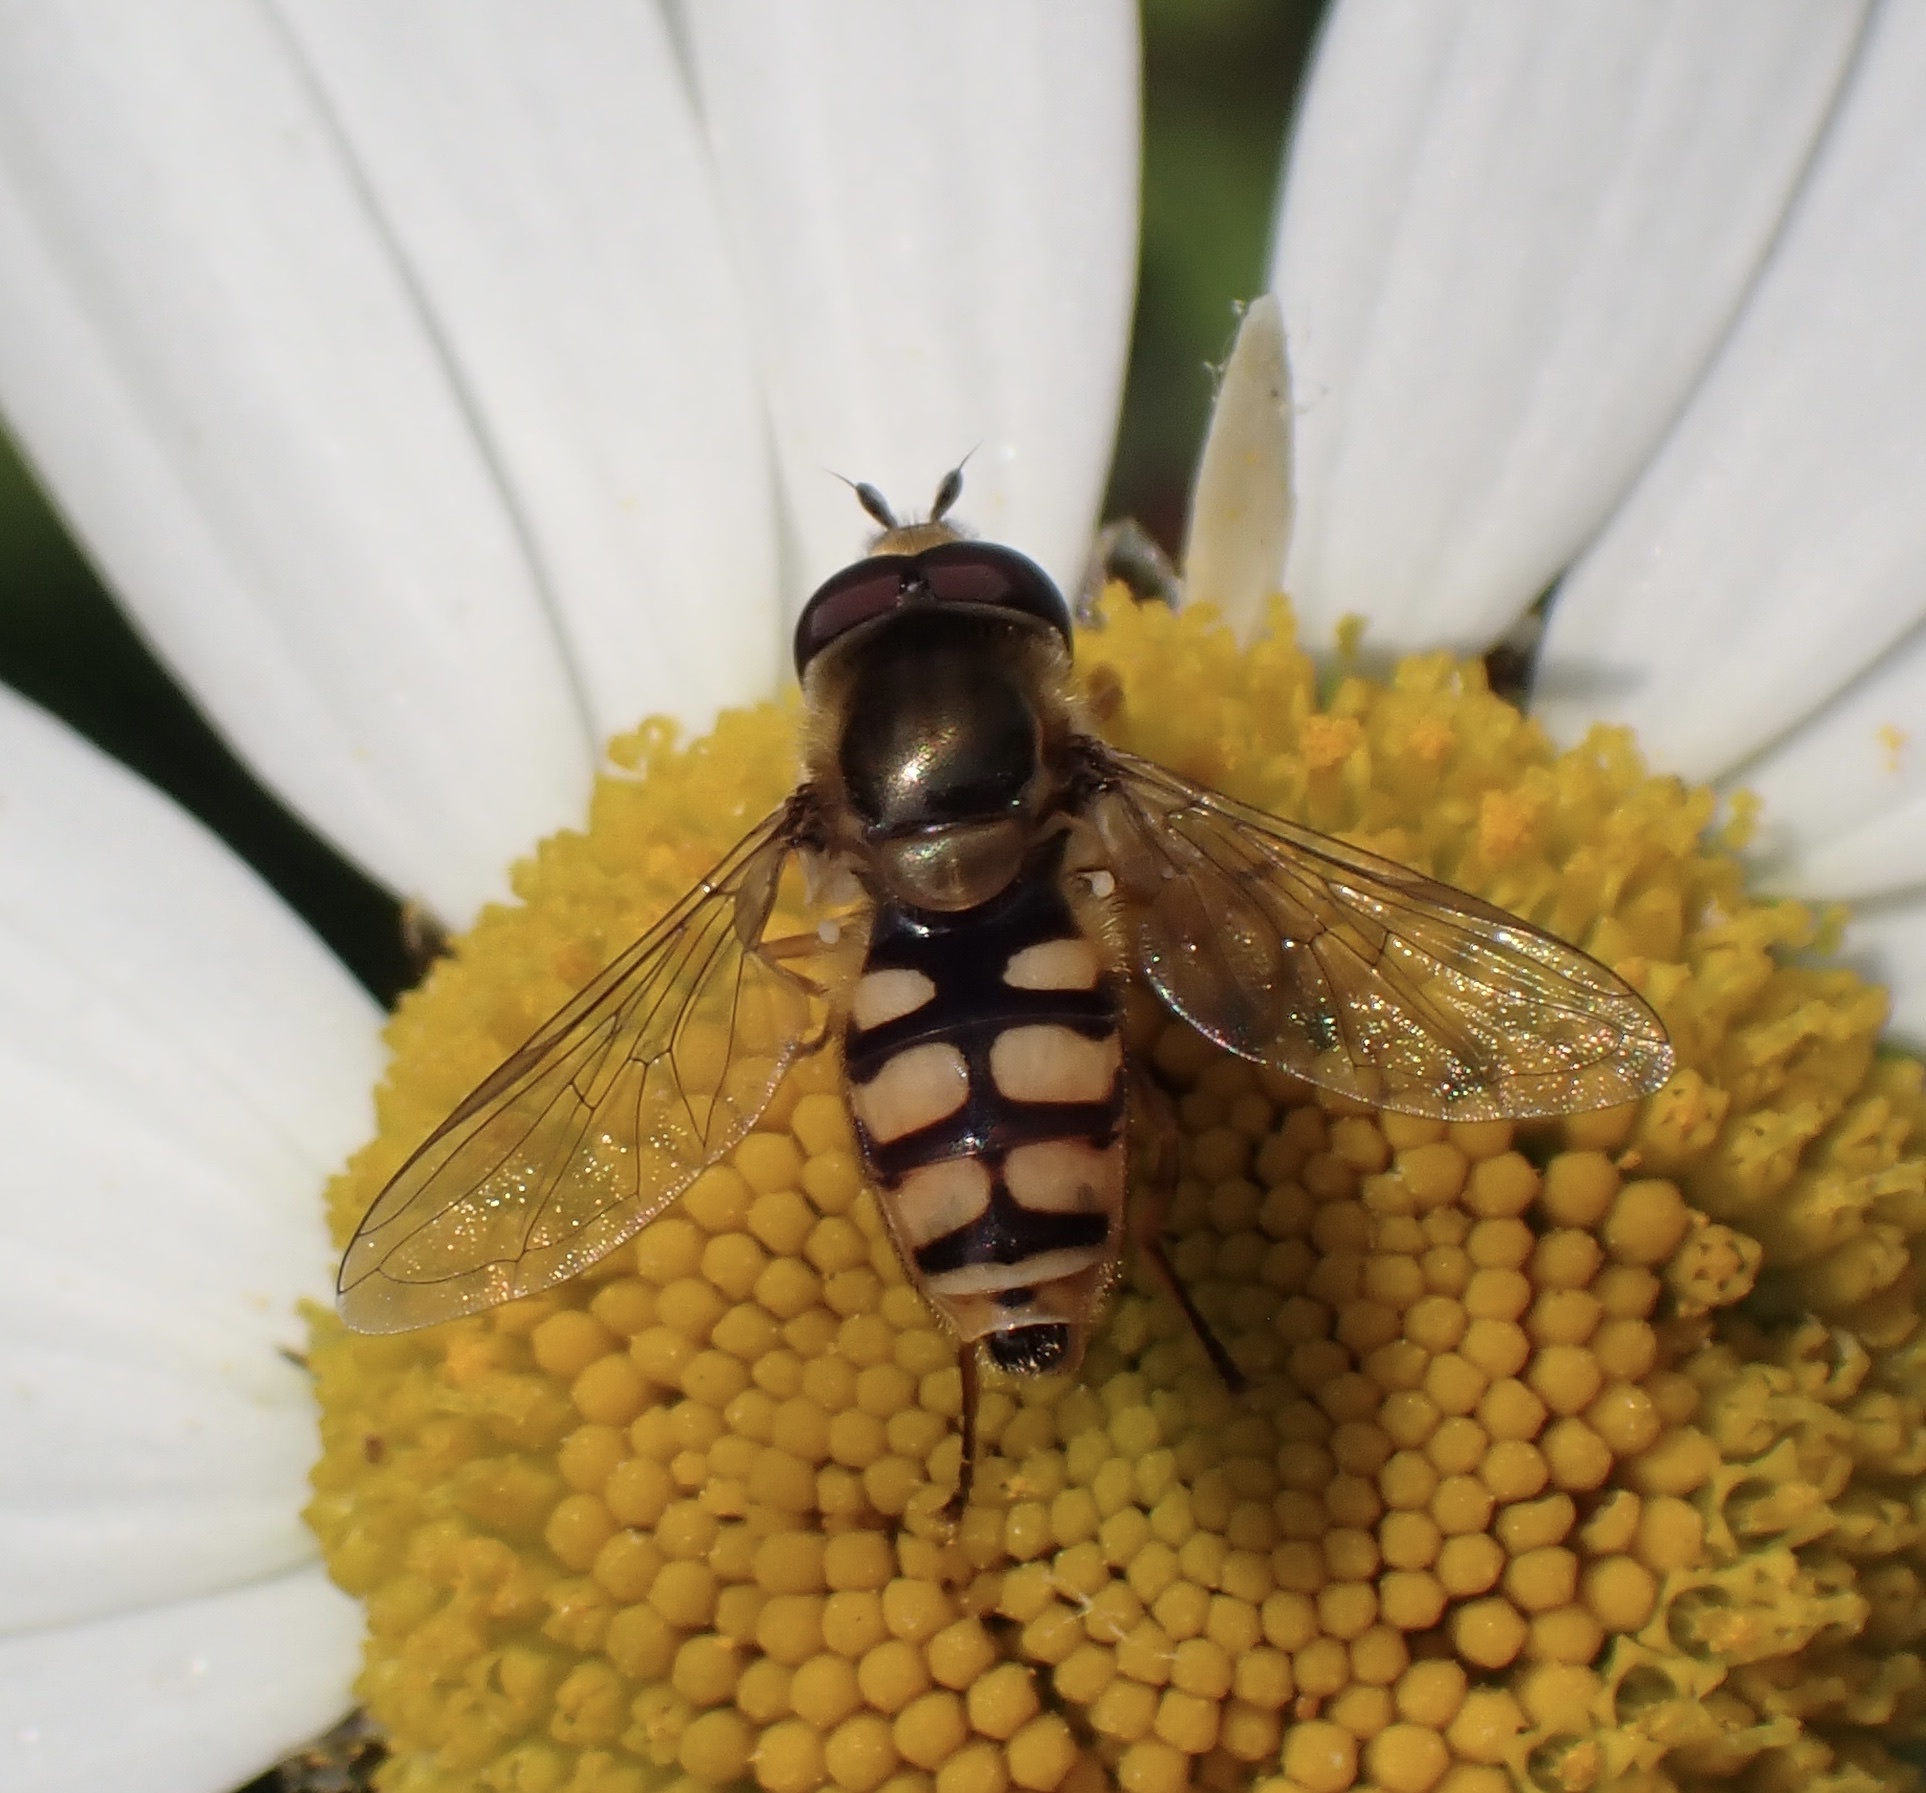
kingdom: Animalia
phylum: Arthropoda
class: Insecta
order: Diptera
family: Syrphidae
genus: Eupeodes
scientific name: Eupeodes corollae
